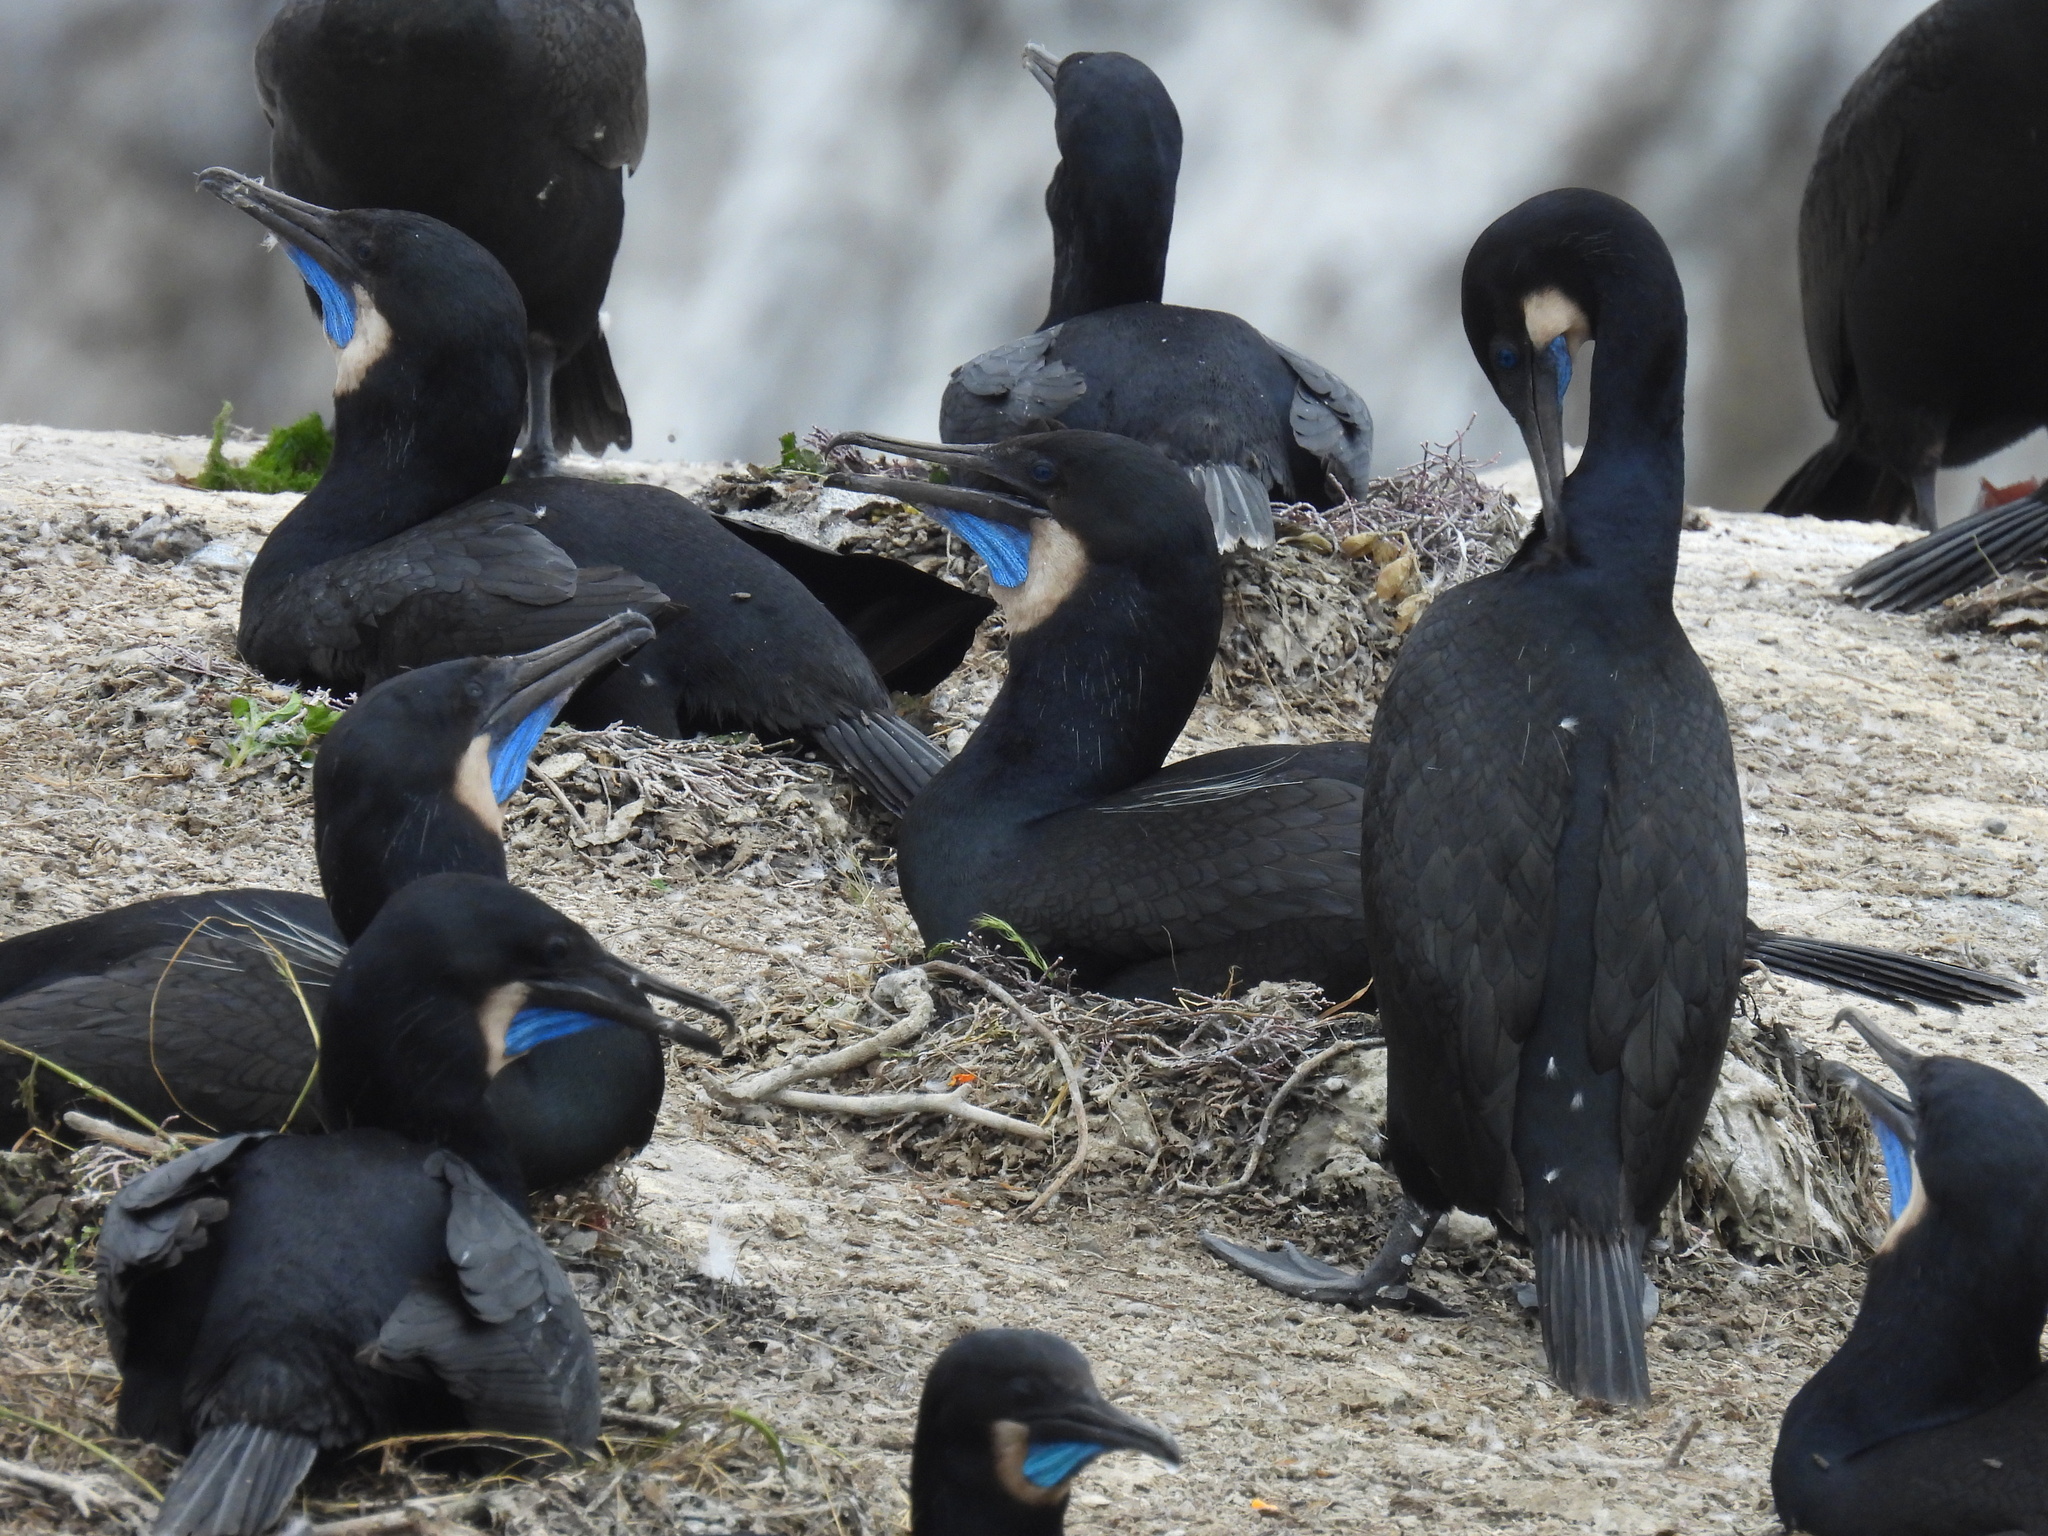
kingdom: Animalia
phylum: Chordata
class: Aves
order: Suliformes
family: Phalacrocoracidae
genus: Urile
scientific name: Urile penicillatus
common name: Brandt's cormorant
